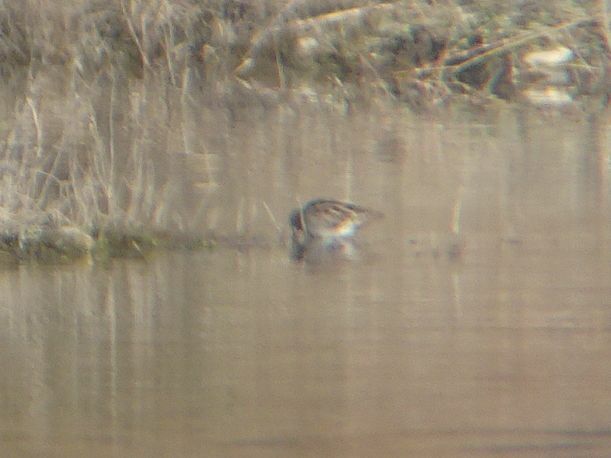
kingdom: Animalia
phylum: Chordata
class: Aves
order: Charadriiformes
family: Scolopacidae
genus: Gallinago
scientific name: Gallinago gallinago
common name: Common snipe
